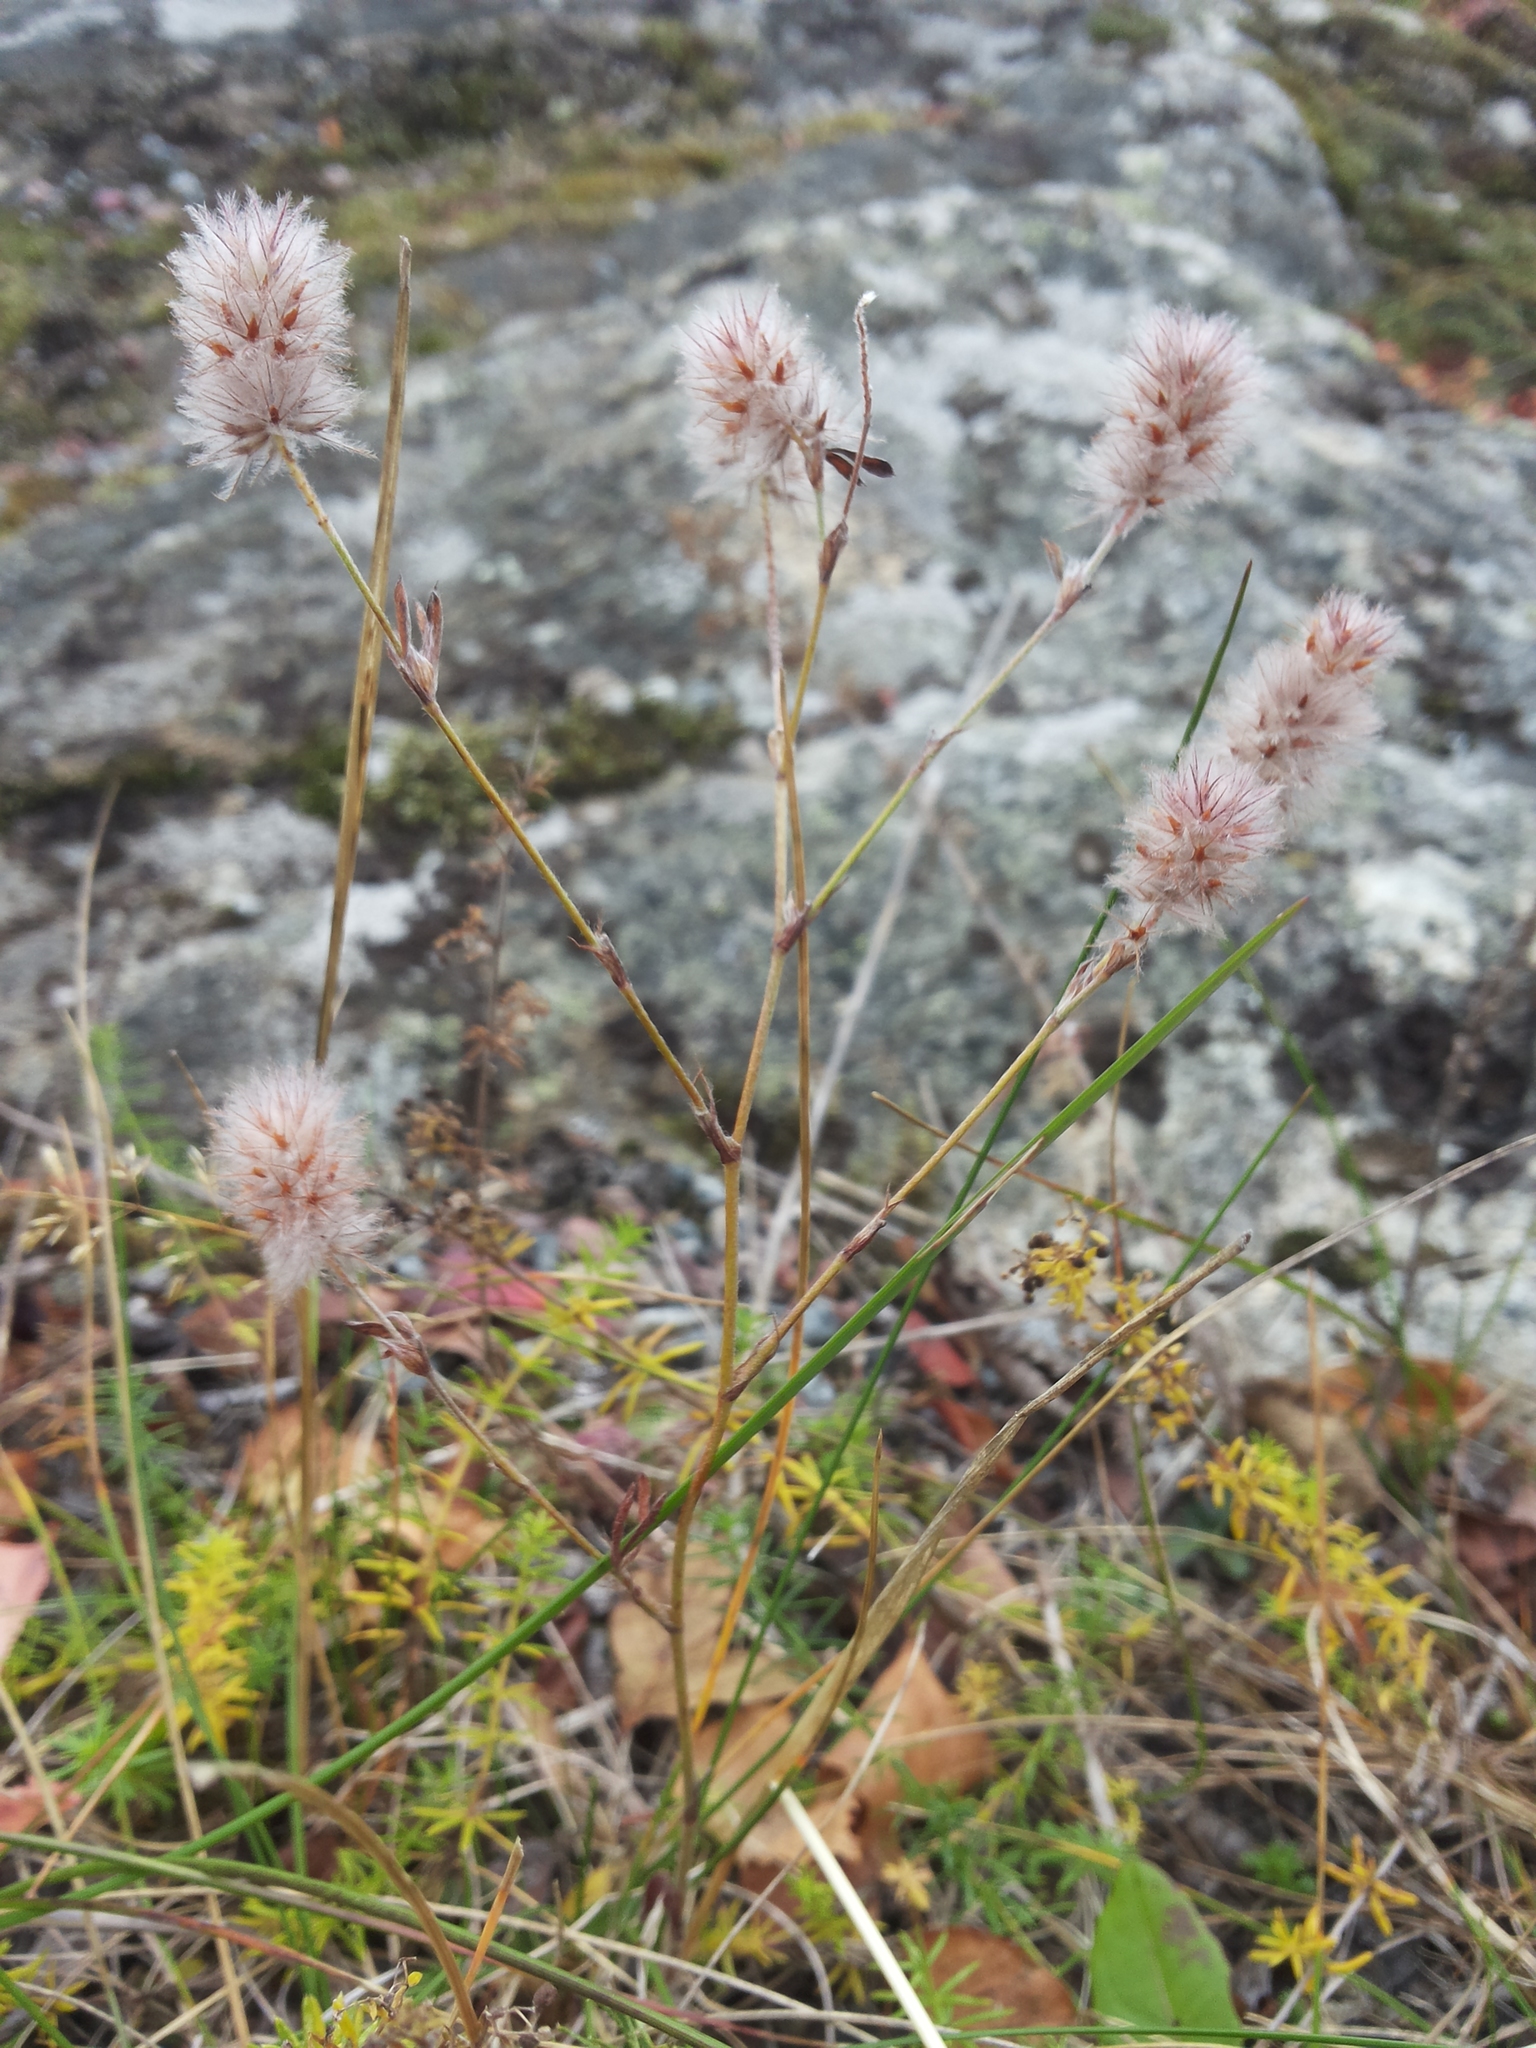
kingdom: Plantae
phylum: Tracheophyta
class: Magnoliopsida
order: Fabales
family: Fabaceae
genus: Trifolium
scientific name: Trifolium arvense
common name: Hare's-foot clover
